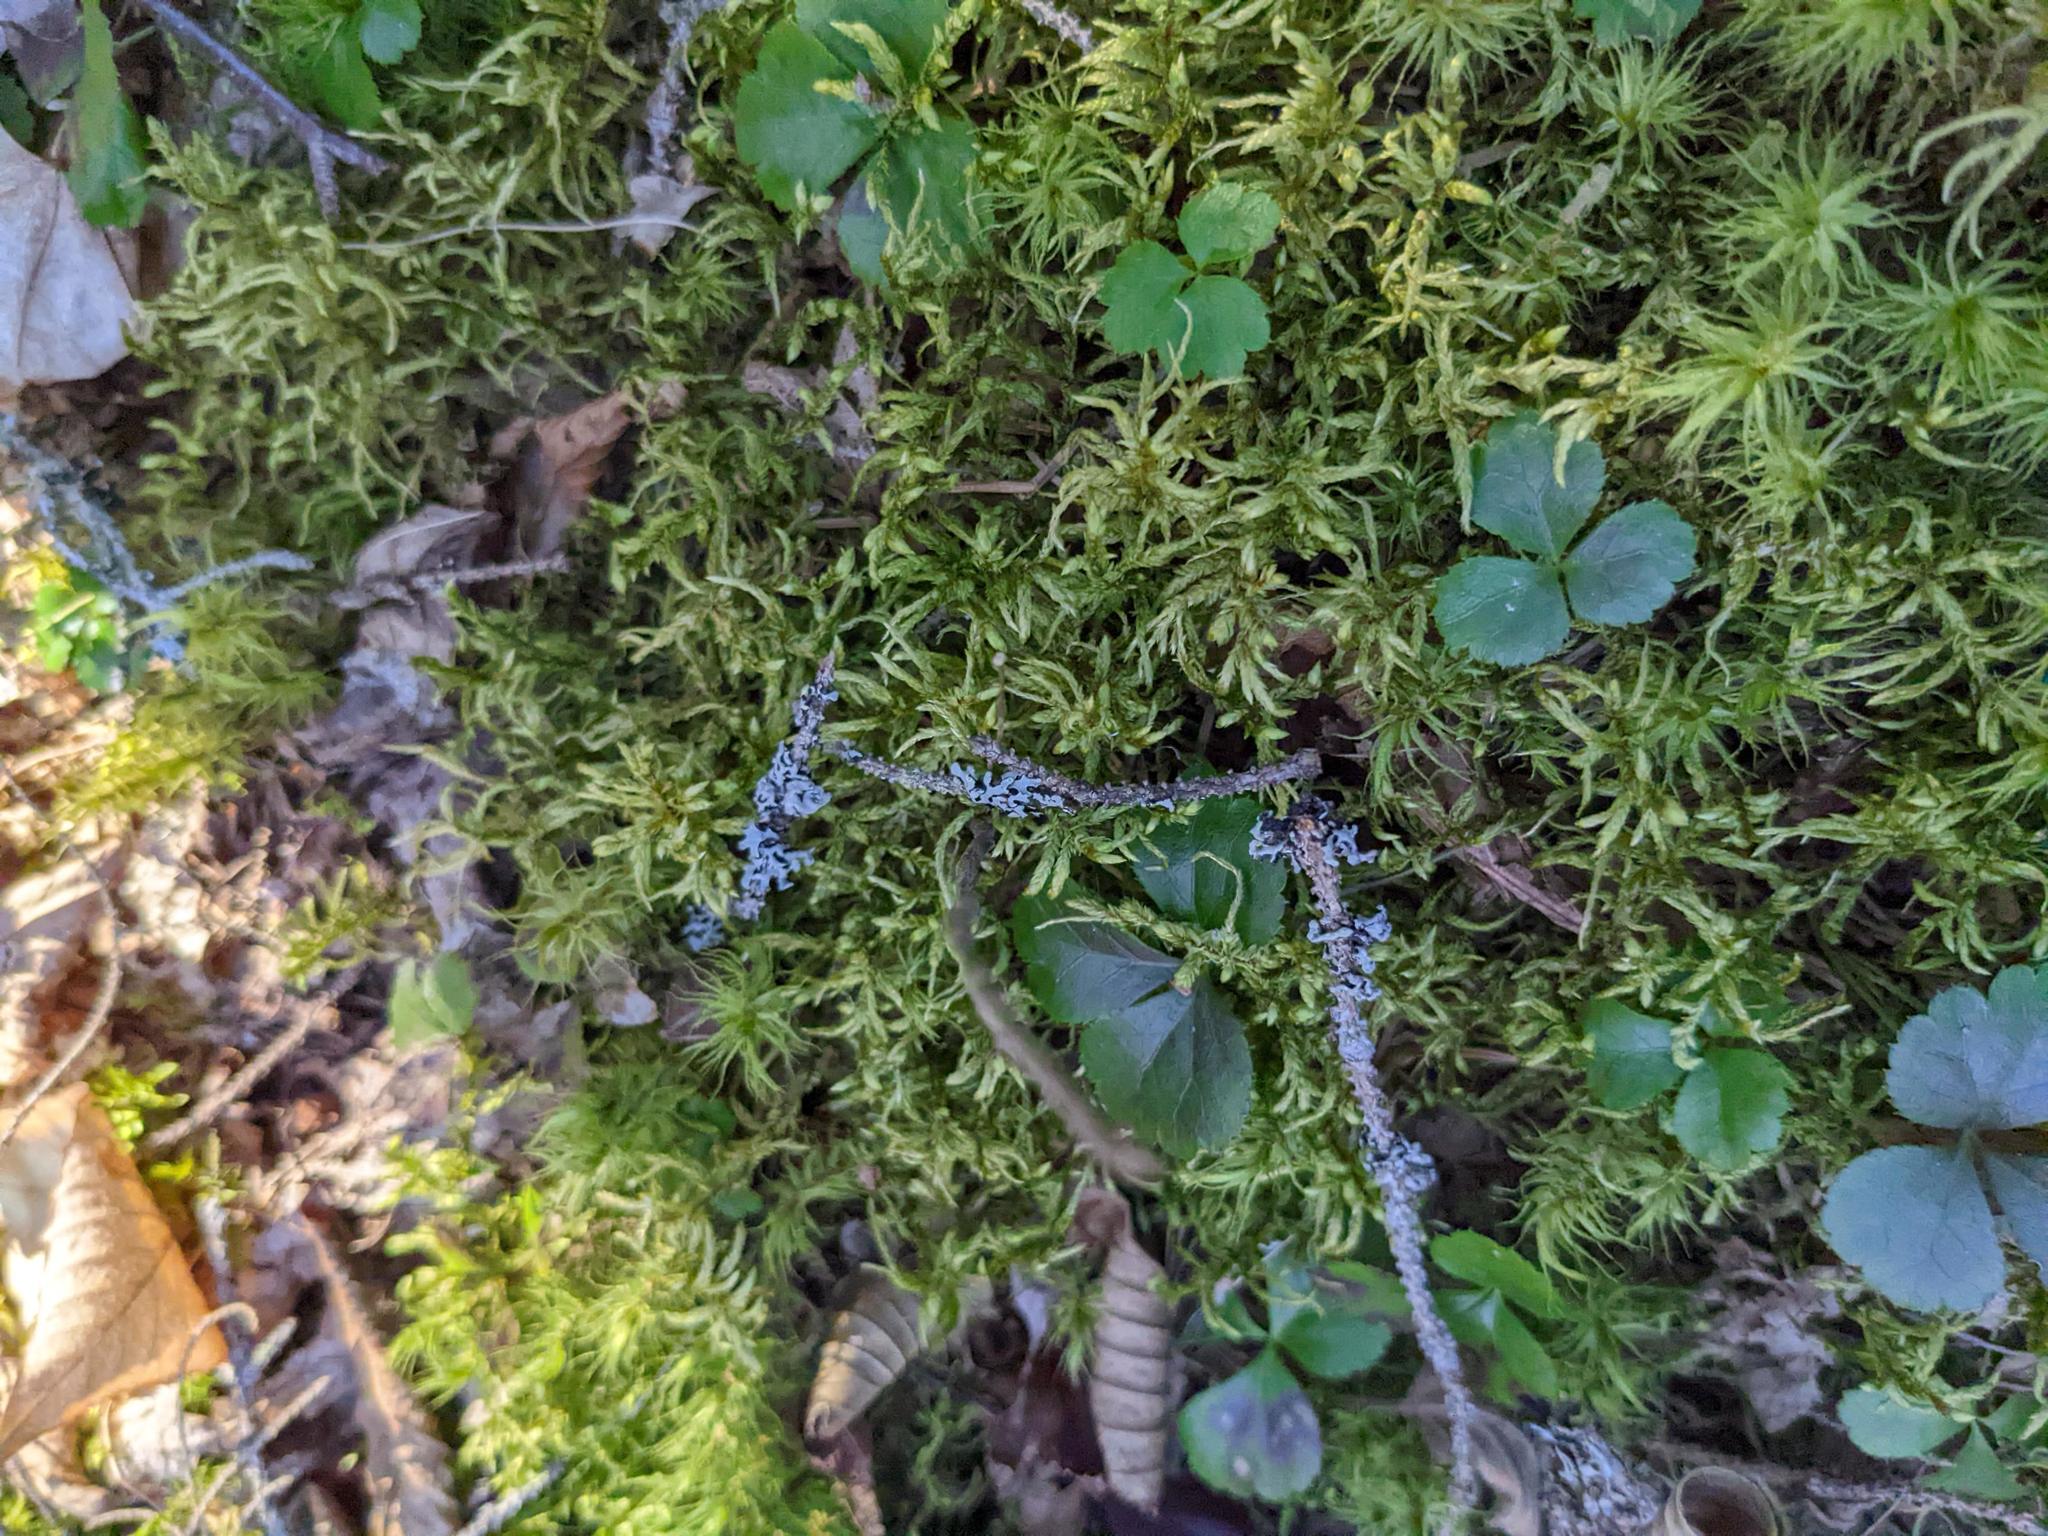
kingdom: Plantae
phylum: Tracheophyta
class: Magnoliopsida
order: Ranunculales
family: Ranunculaceae
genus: Coptis
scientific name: Coptis trifolia
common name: Canker-root
